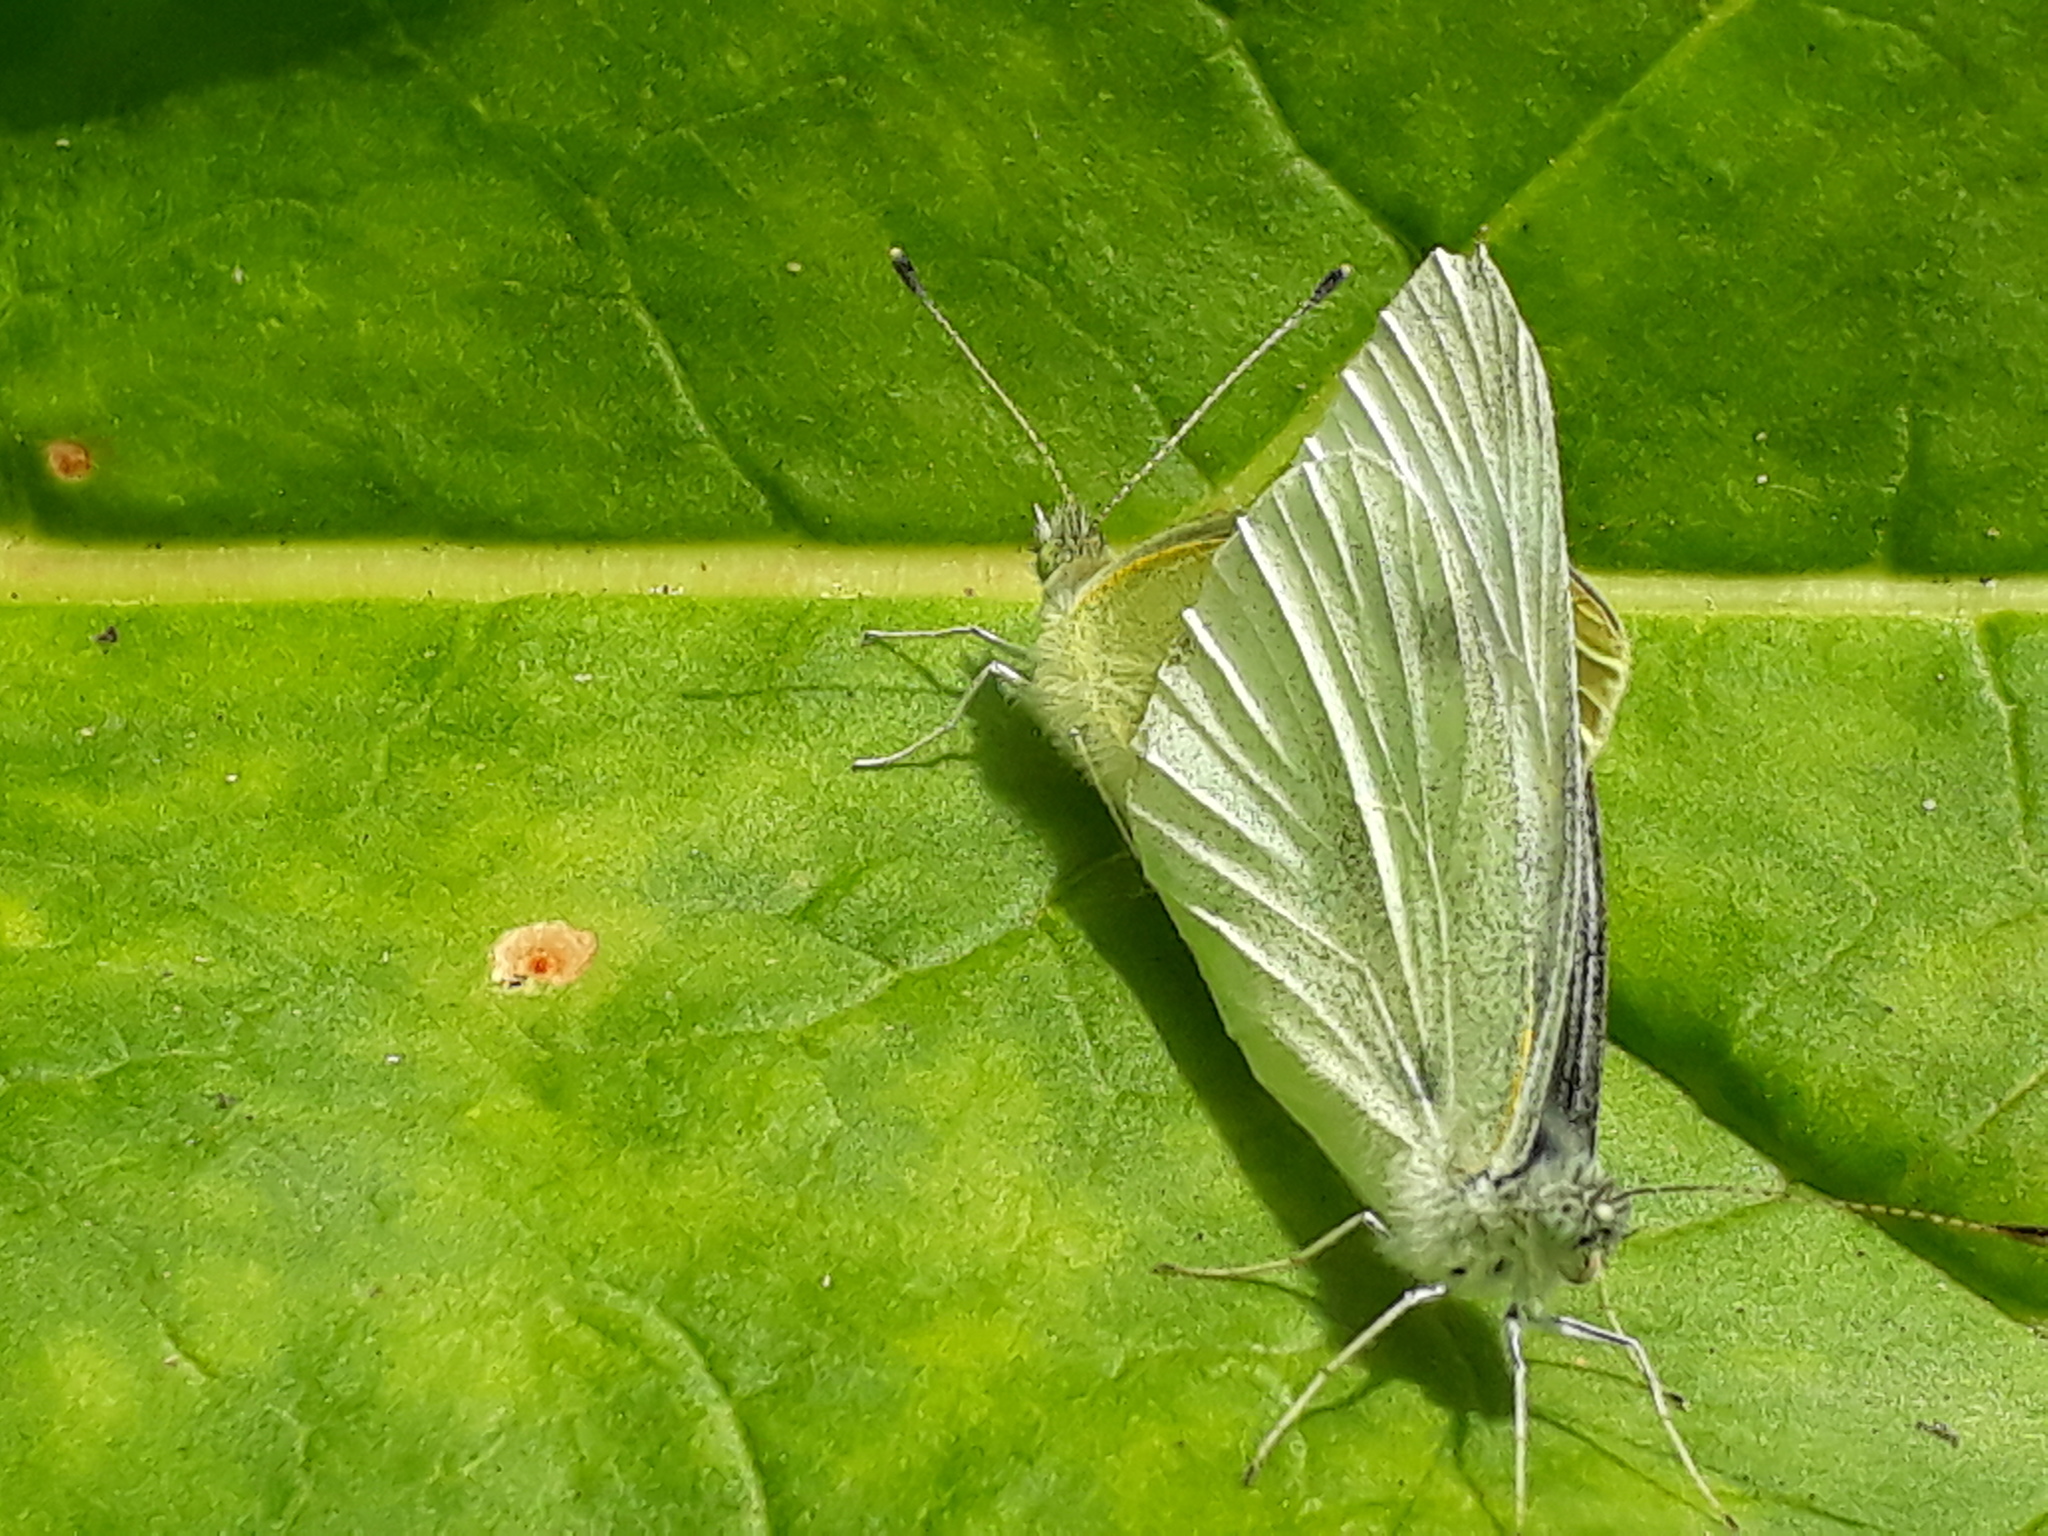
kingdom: Animalia
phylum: Arthropoda
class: Insecta
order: Lepidoptera
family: Pieridae
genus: Pieris
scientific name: Pieris rapae
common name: Small white
